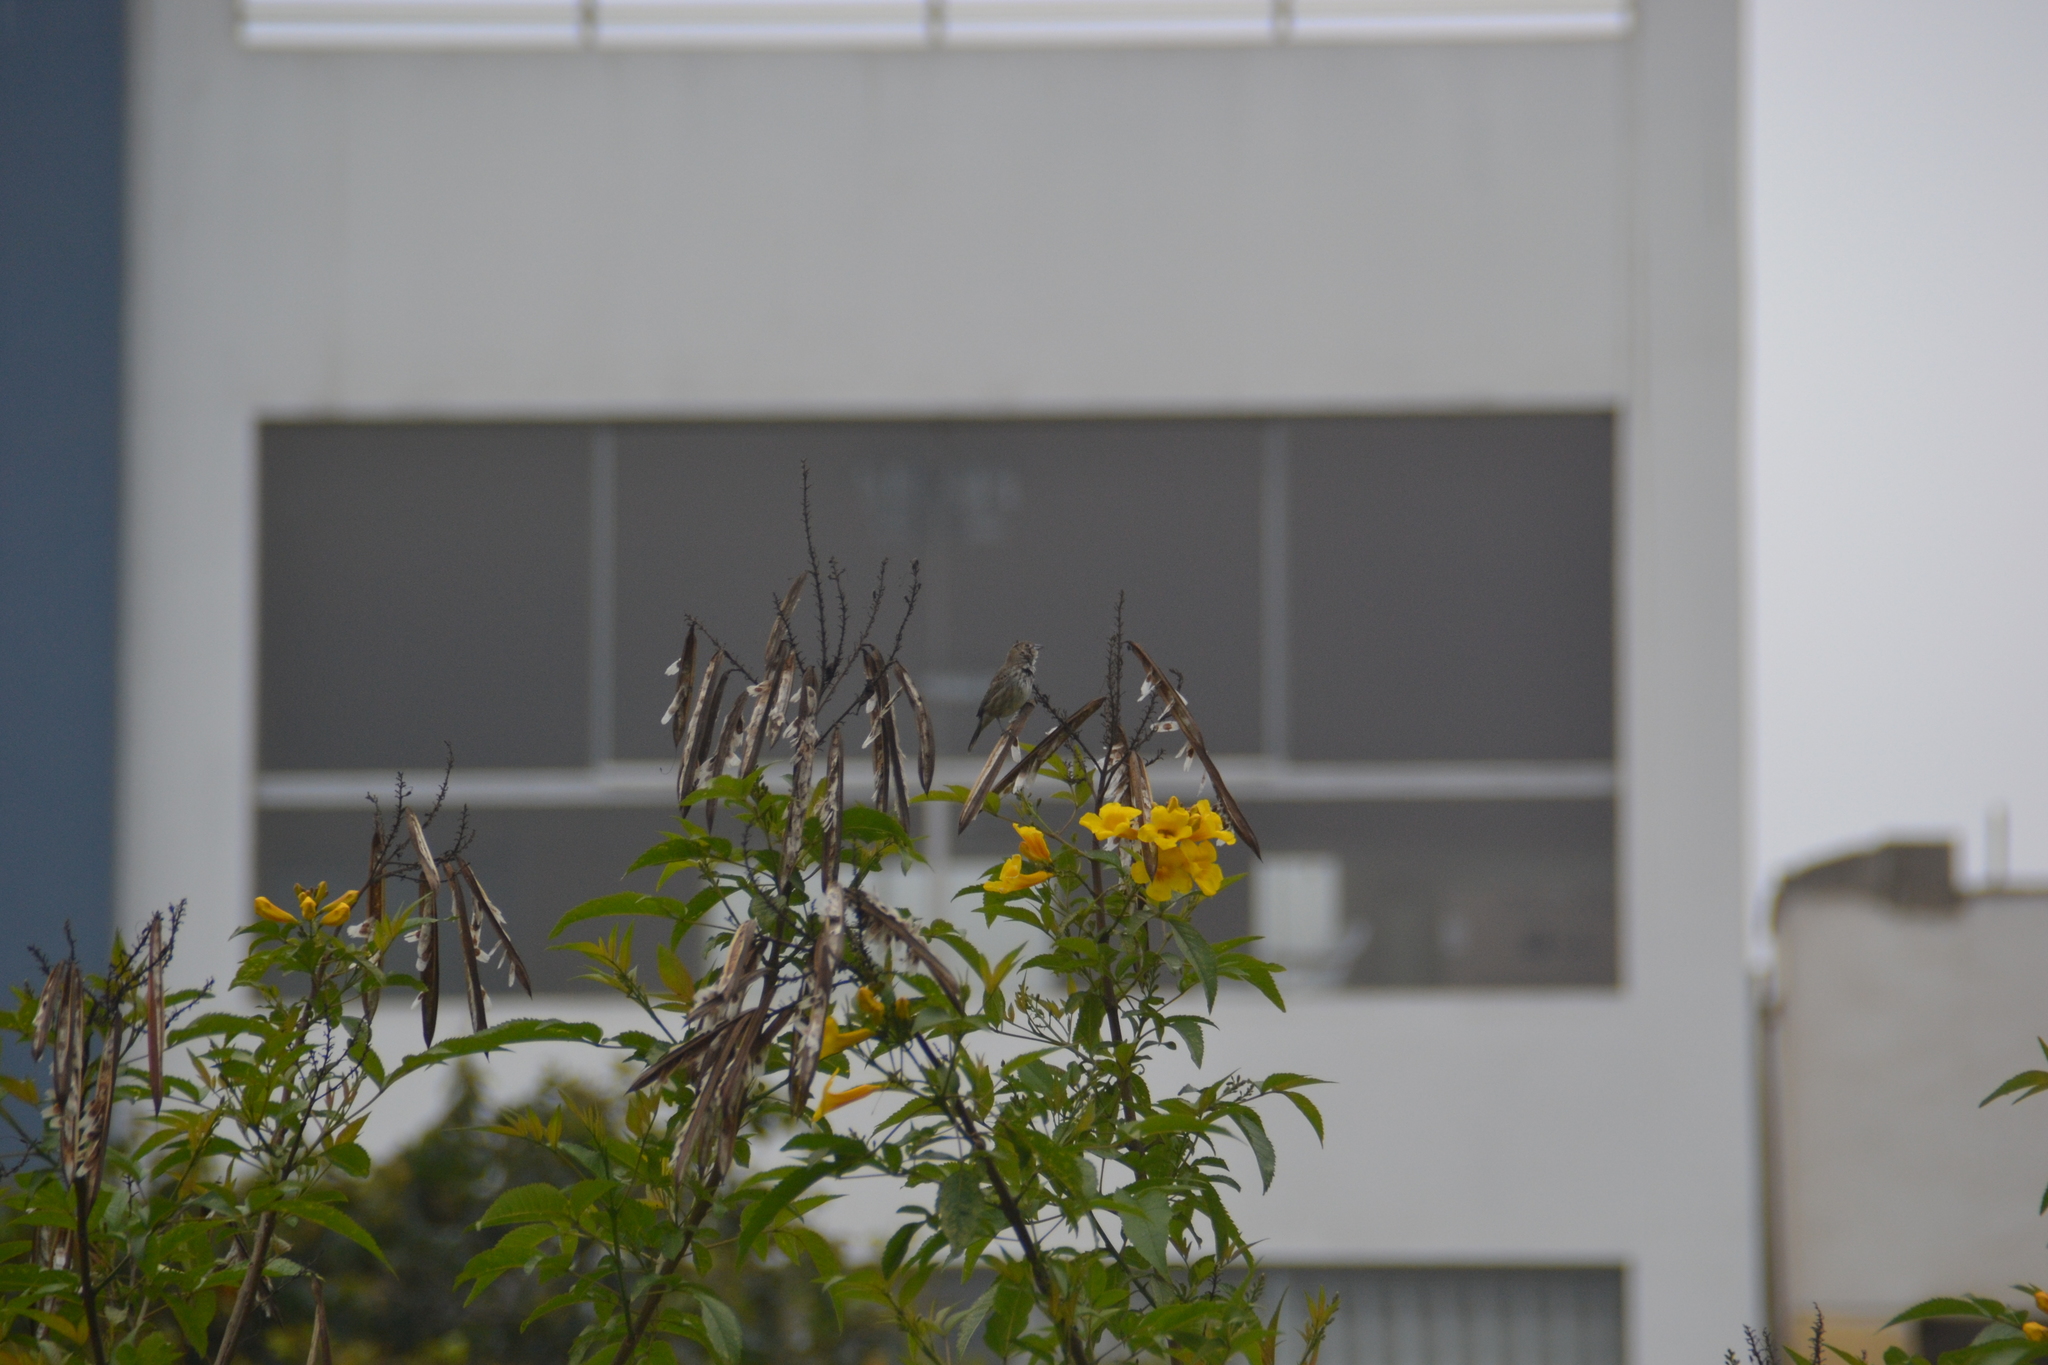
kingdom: Animalia
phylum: Chordata
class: Aves
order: Passeriformes
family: Thraupidae
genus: Volatinia
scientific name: Volatinia jacarina
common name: Blue-black grassquit
